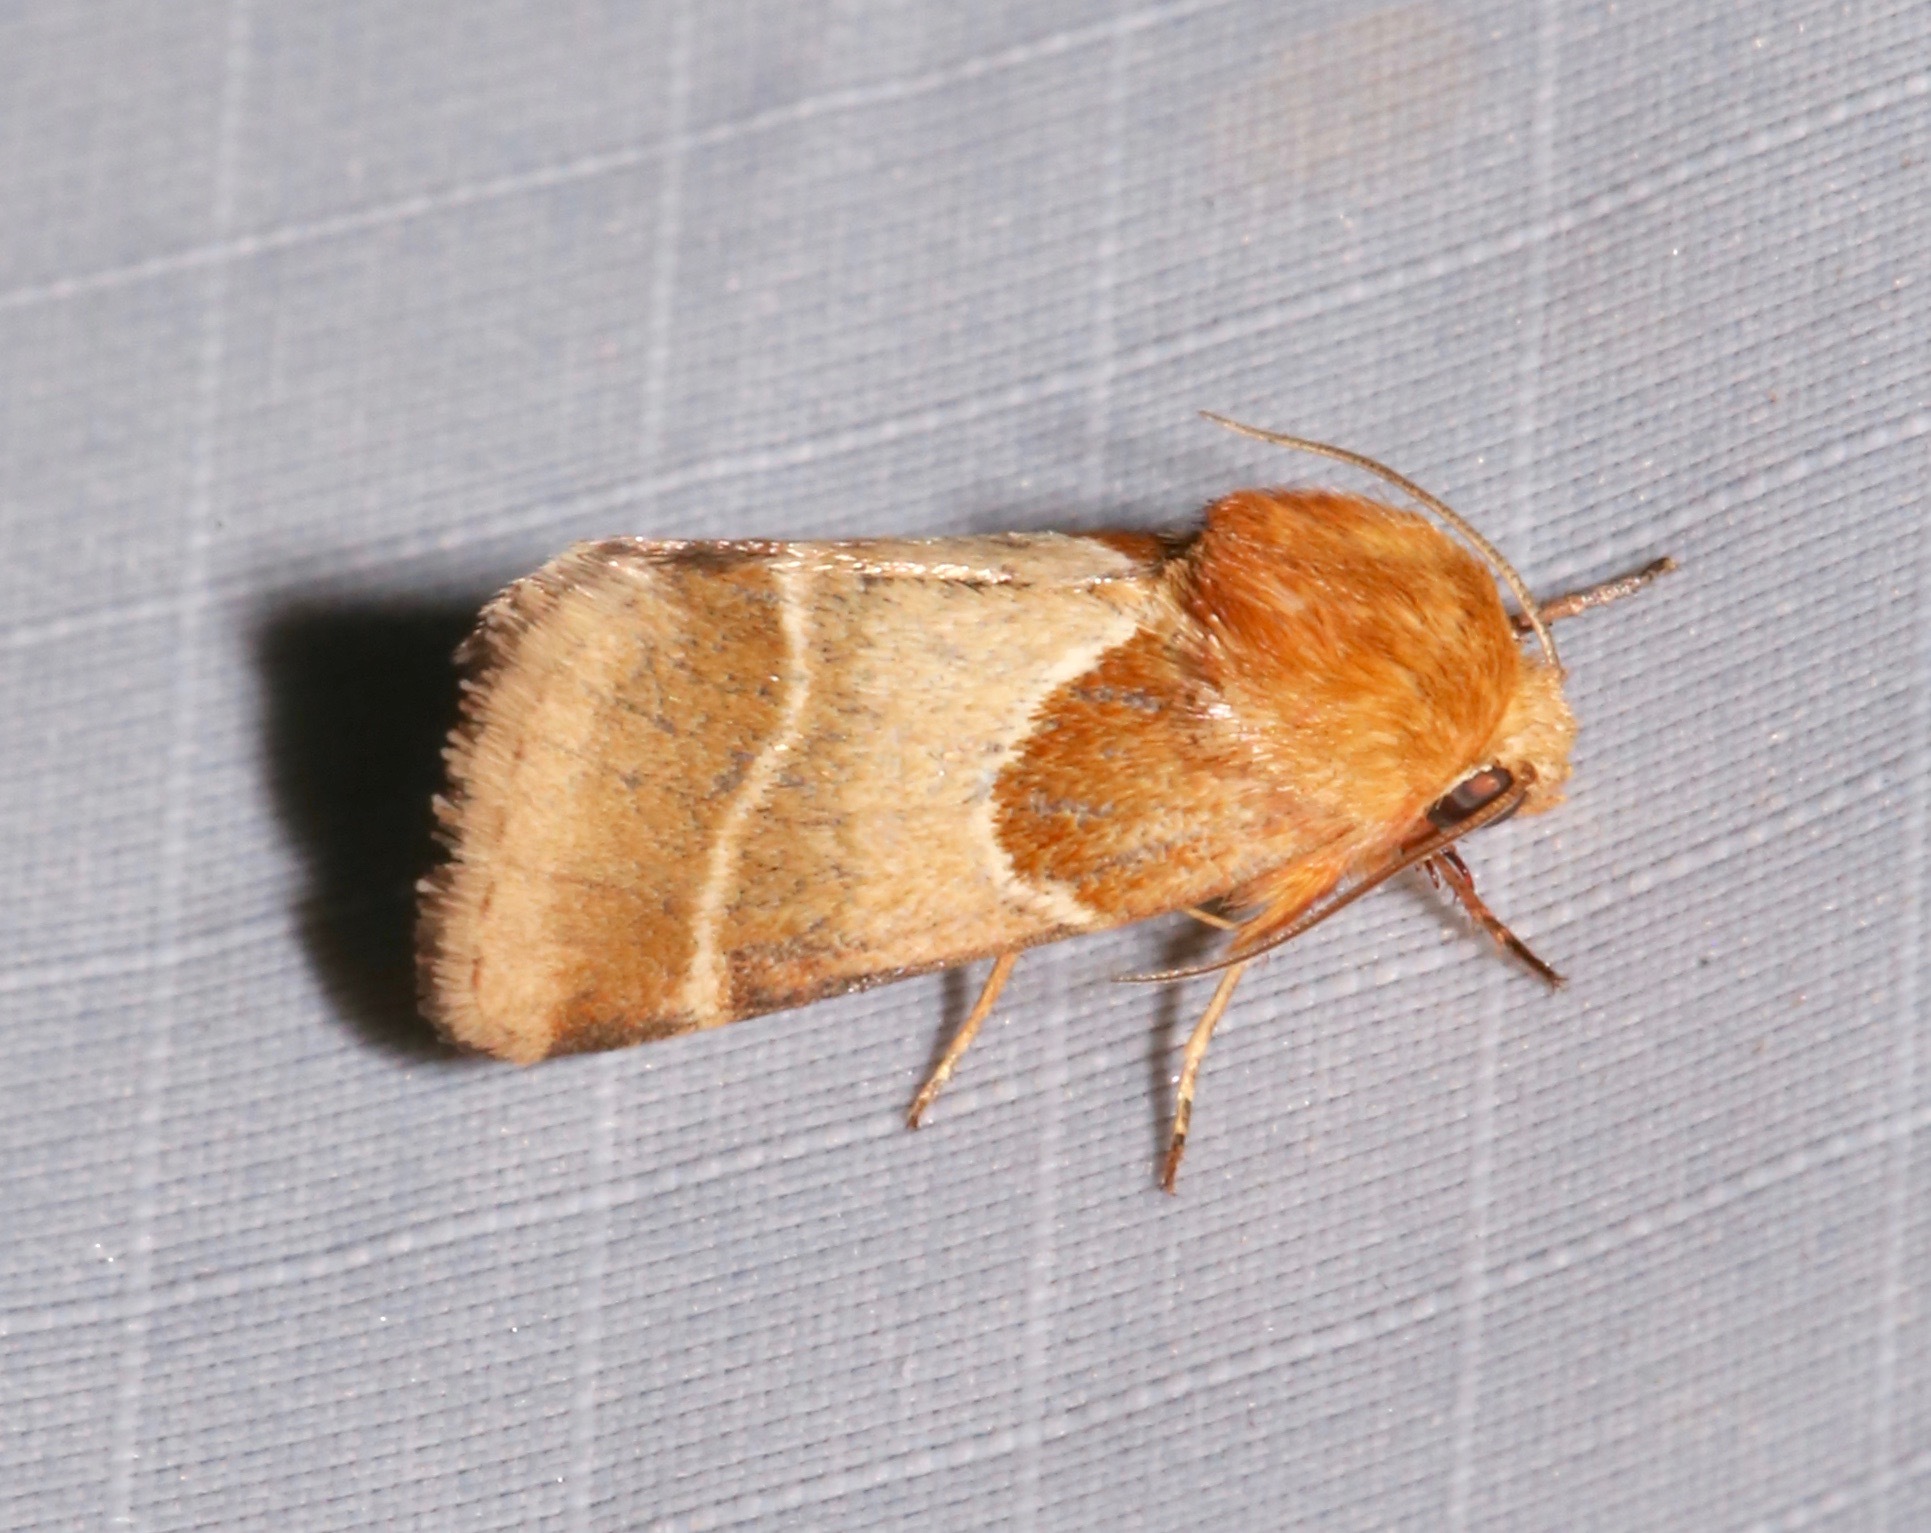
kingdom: Animalia
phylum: Arthropoda
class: Insecta
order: Lepidoptera
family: Noctuidae
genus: Schinia
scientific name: Schinia arcigera
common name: Arcigera flower moth
